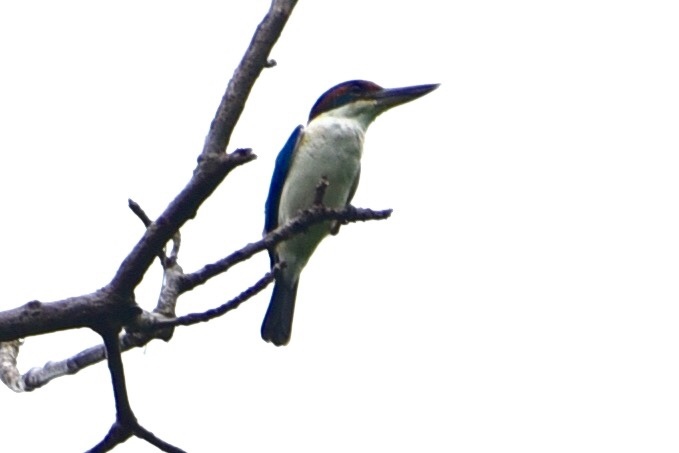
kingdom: Animalia
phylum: Chordata
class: Aves
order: Coraciiformes
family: Alcedinidae
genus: Todiramphus
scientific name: Todiramphus sacer
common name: Pacific kingfisher
